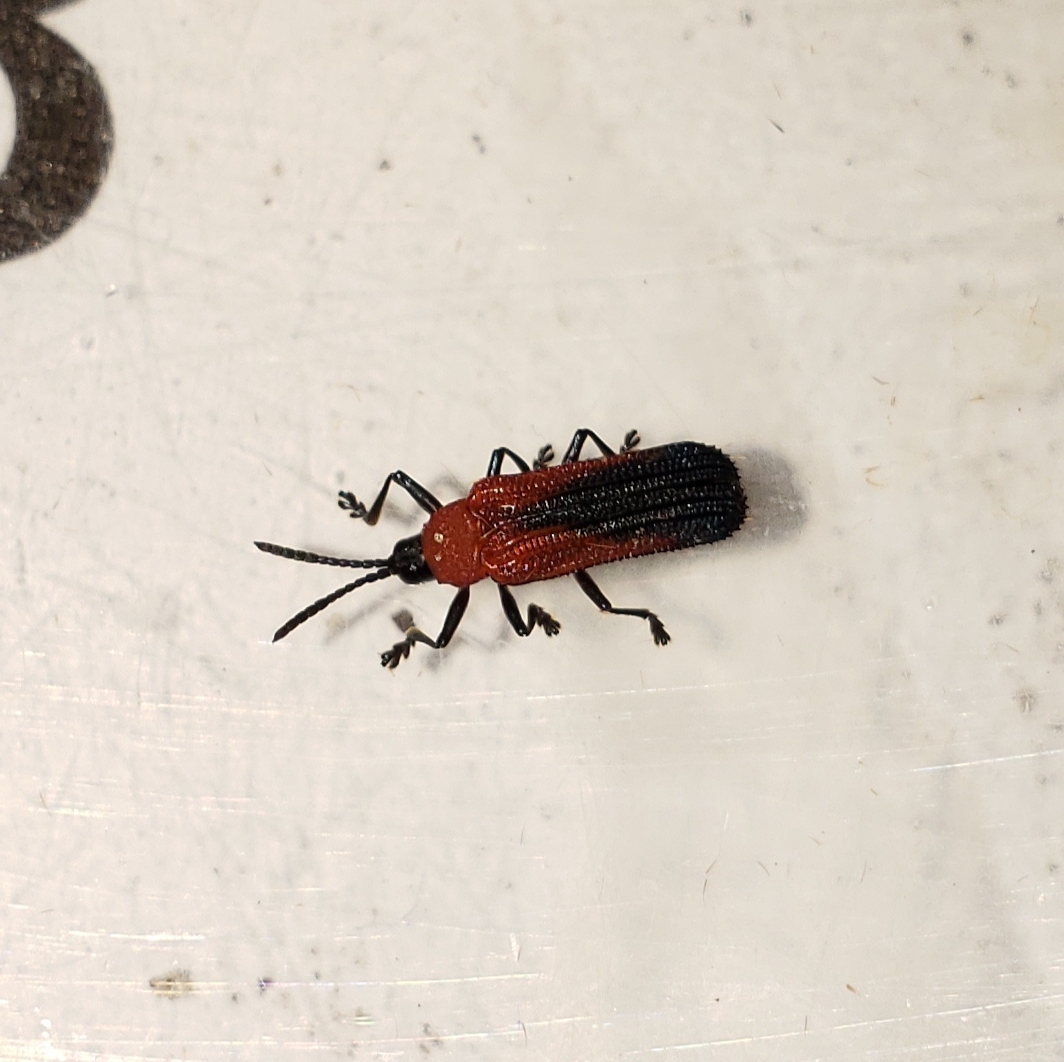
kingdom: Animalia
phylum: Arthropoda
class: Insecta
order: Coleoptera
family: Chrysomelidae
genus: Chalepus
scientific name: Chalepus sanguinicollis
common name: Red-shouldered leaf beetle
